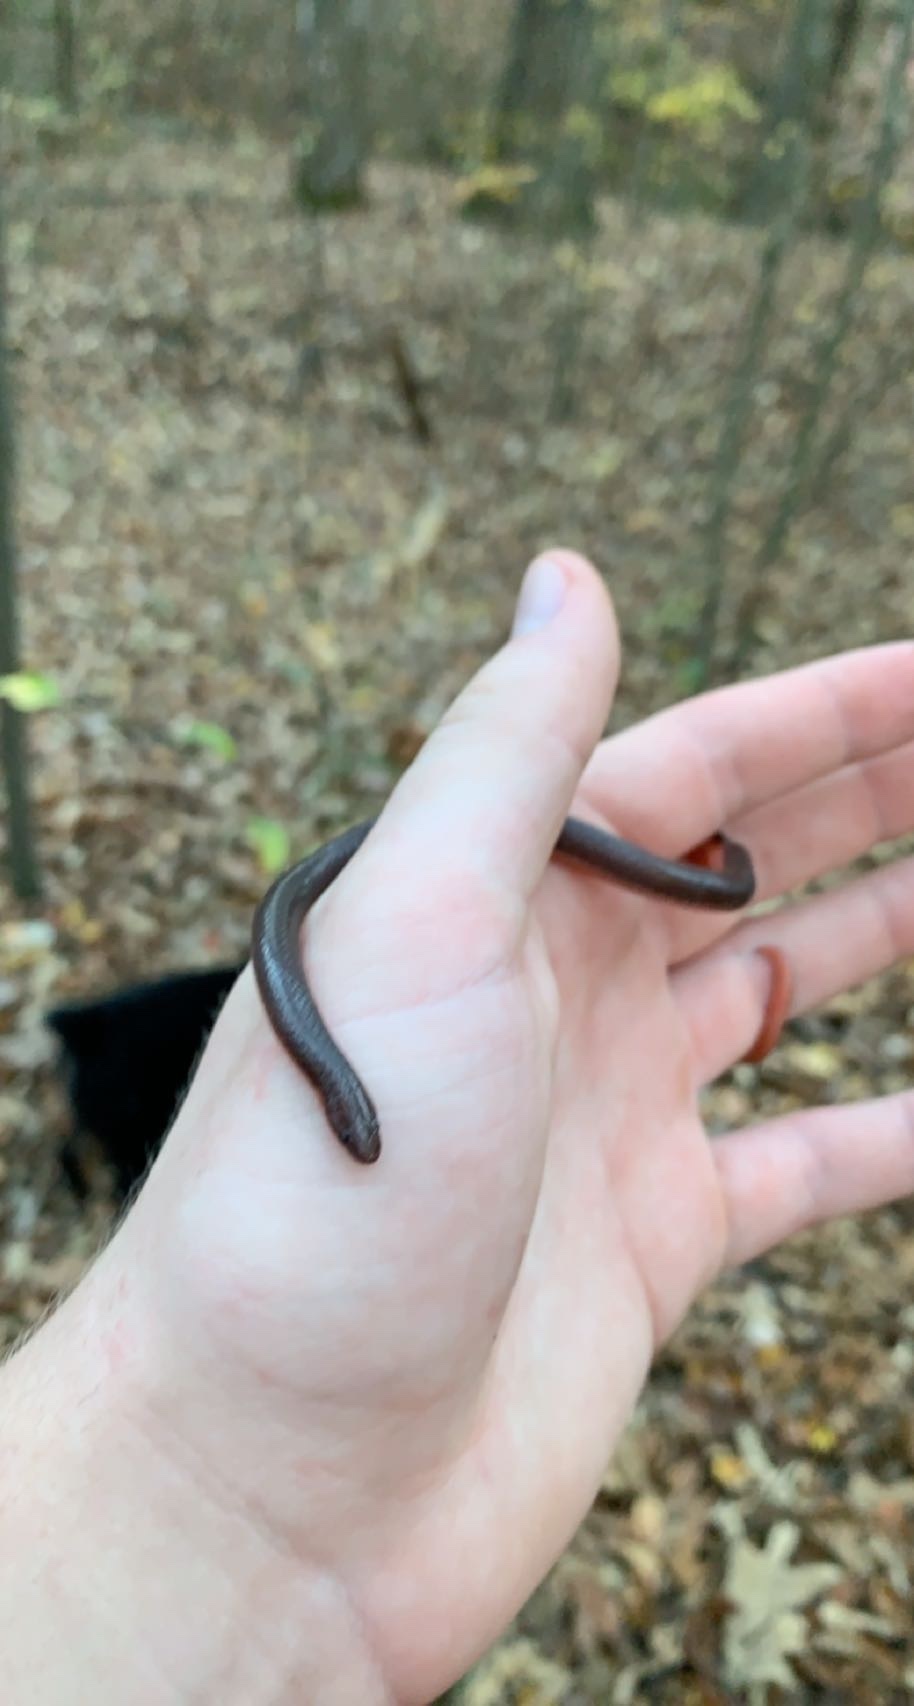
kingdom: Animalia
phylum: Chordata
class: Squamata
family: Colubridae
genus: Carphophis
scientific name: Carphophis amoenus
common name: Eastern worm snake
